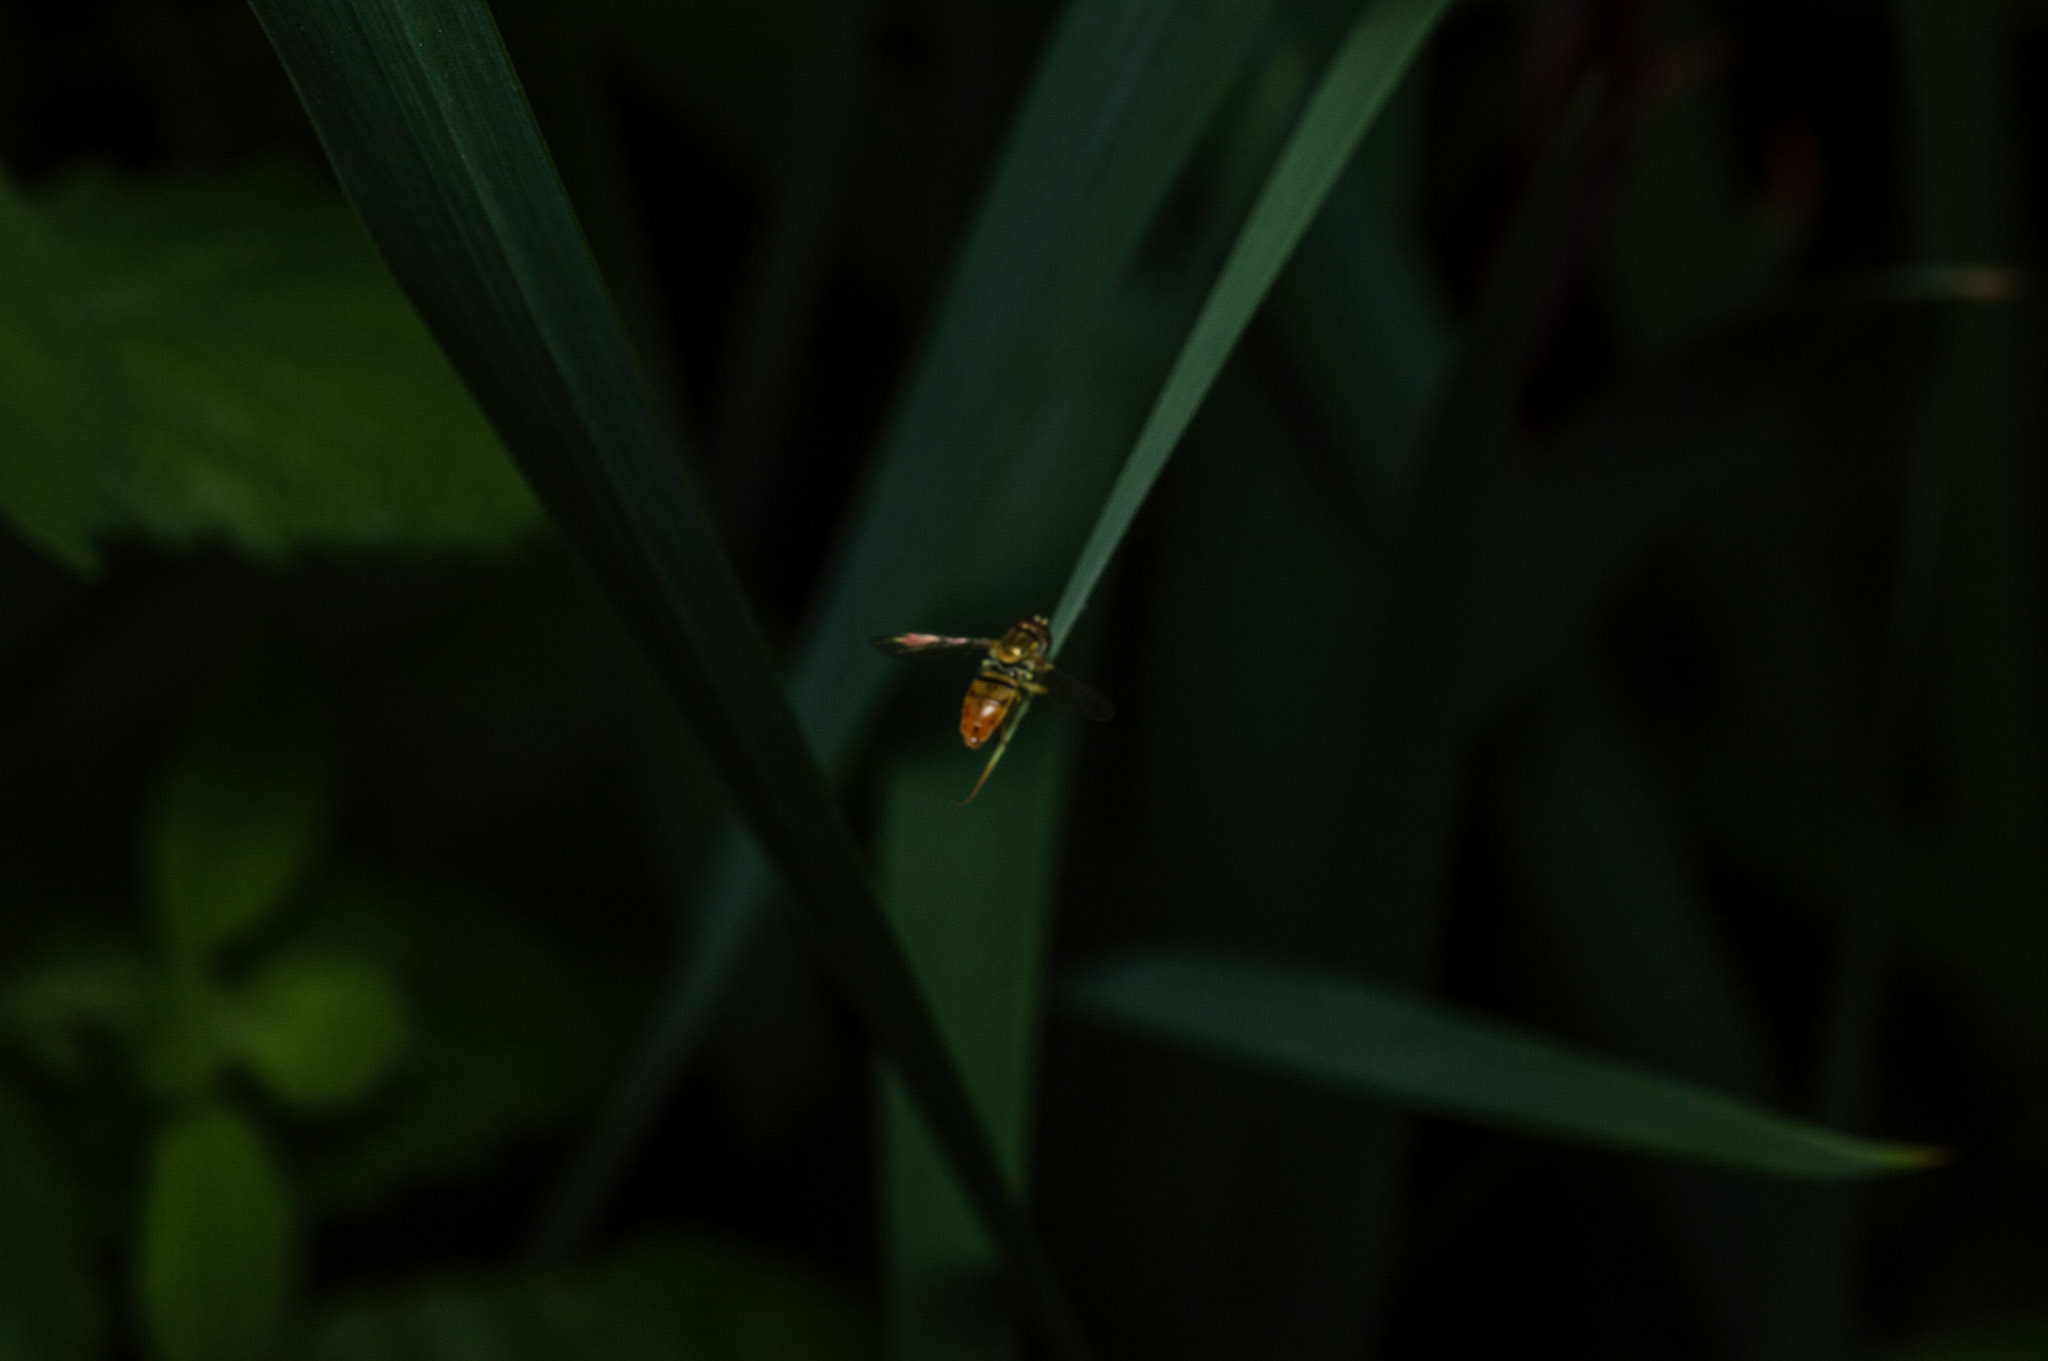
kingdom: Animalia
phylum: Arthropoda
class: Insecta
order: Diptera
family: Syrphidae
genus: Toxomerus
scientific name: Toxomerus marginatus
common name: Syrphid fly
